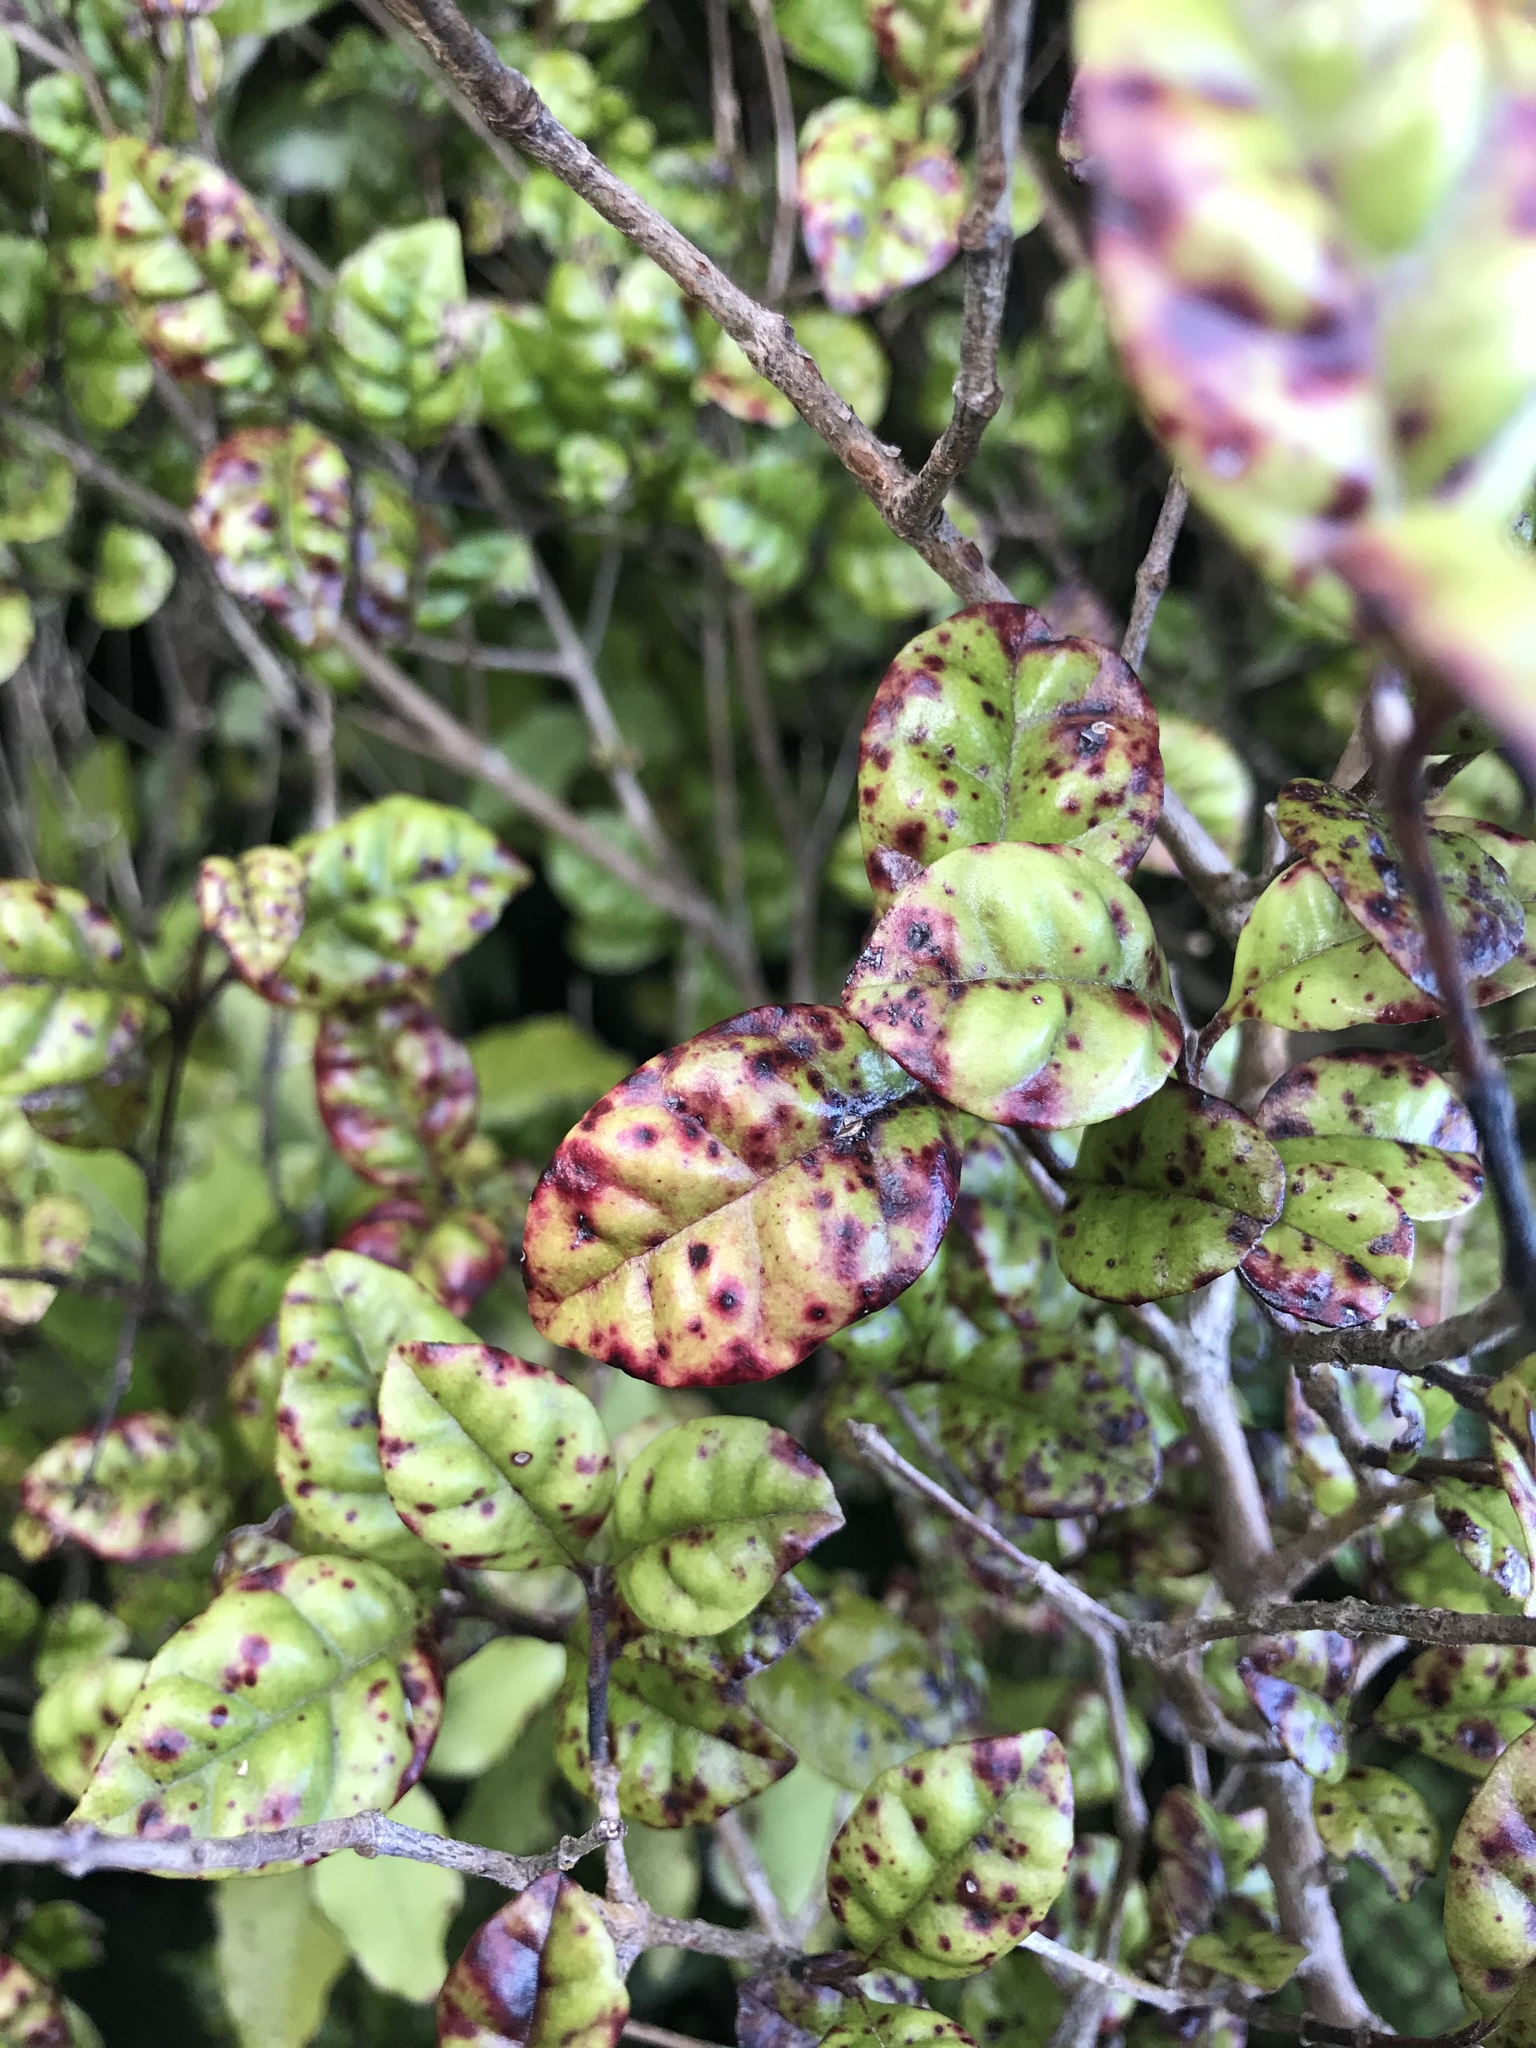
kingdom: Fungi
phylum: Basidiomycota
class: Pucciniomycetes
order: Pucciniales
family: Sphaerophragmiaceae
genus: Austropuccinia
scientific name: Austropuccinia psidii
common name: Myrtle rust
